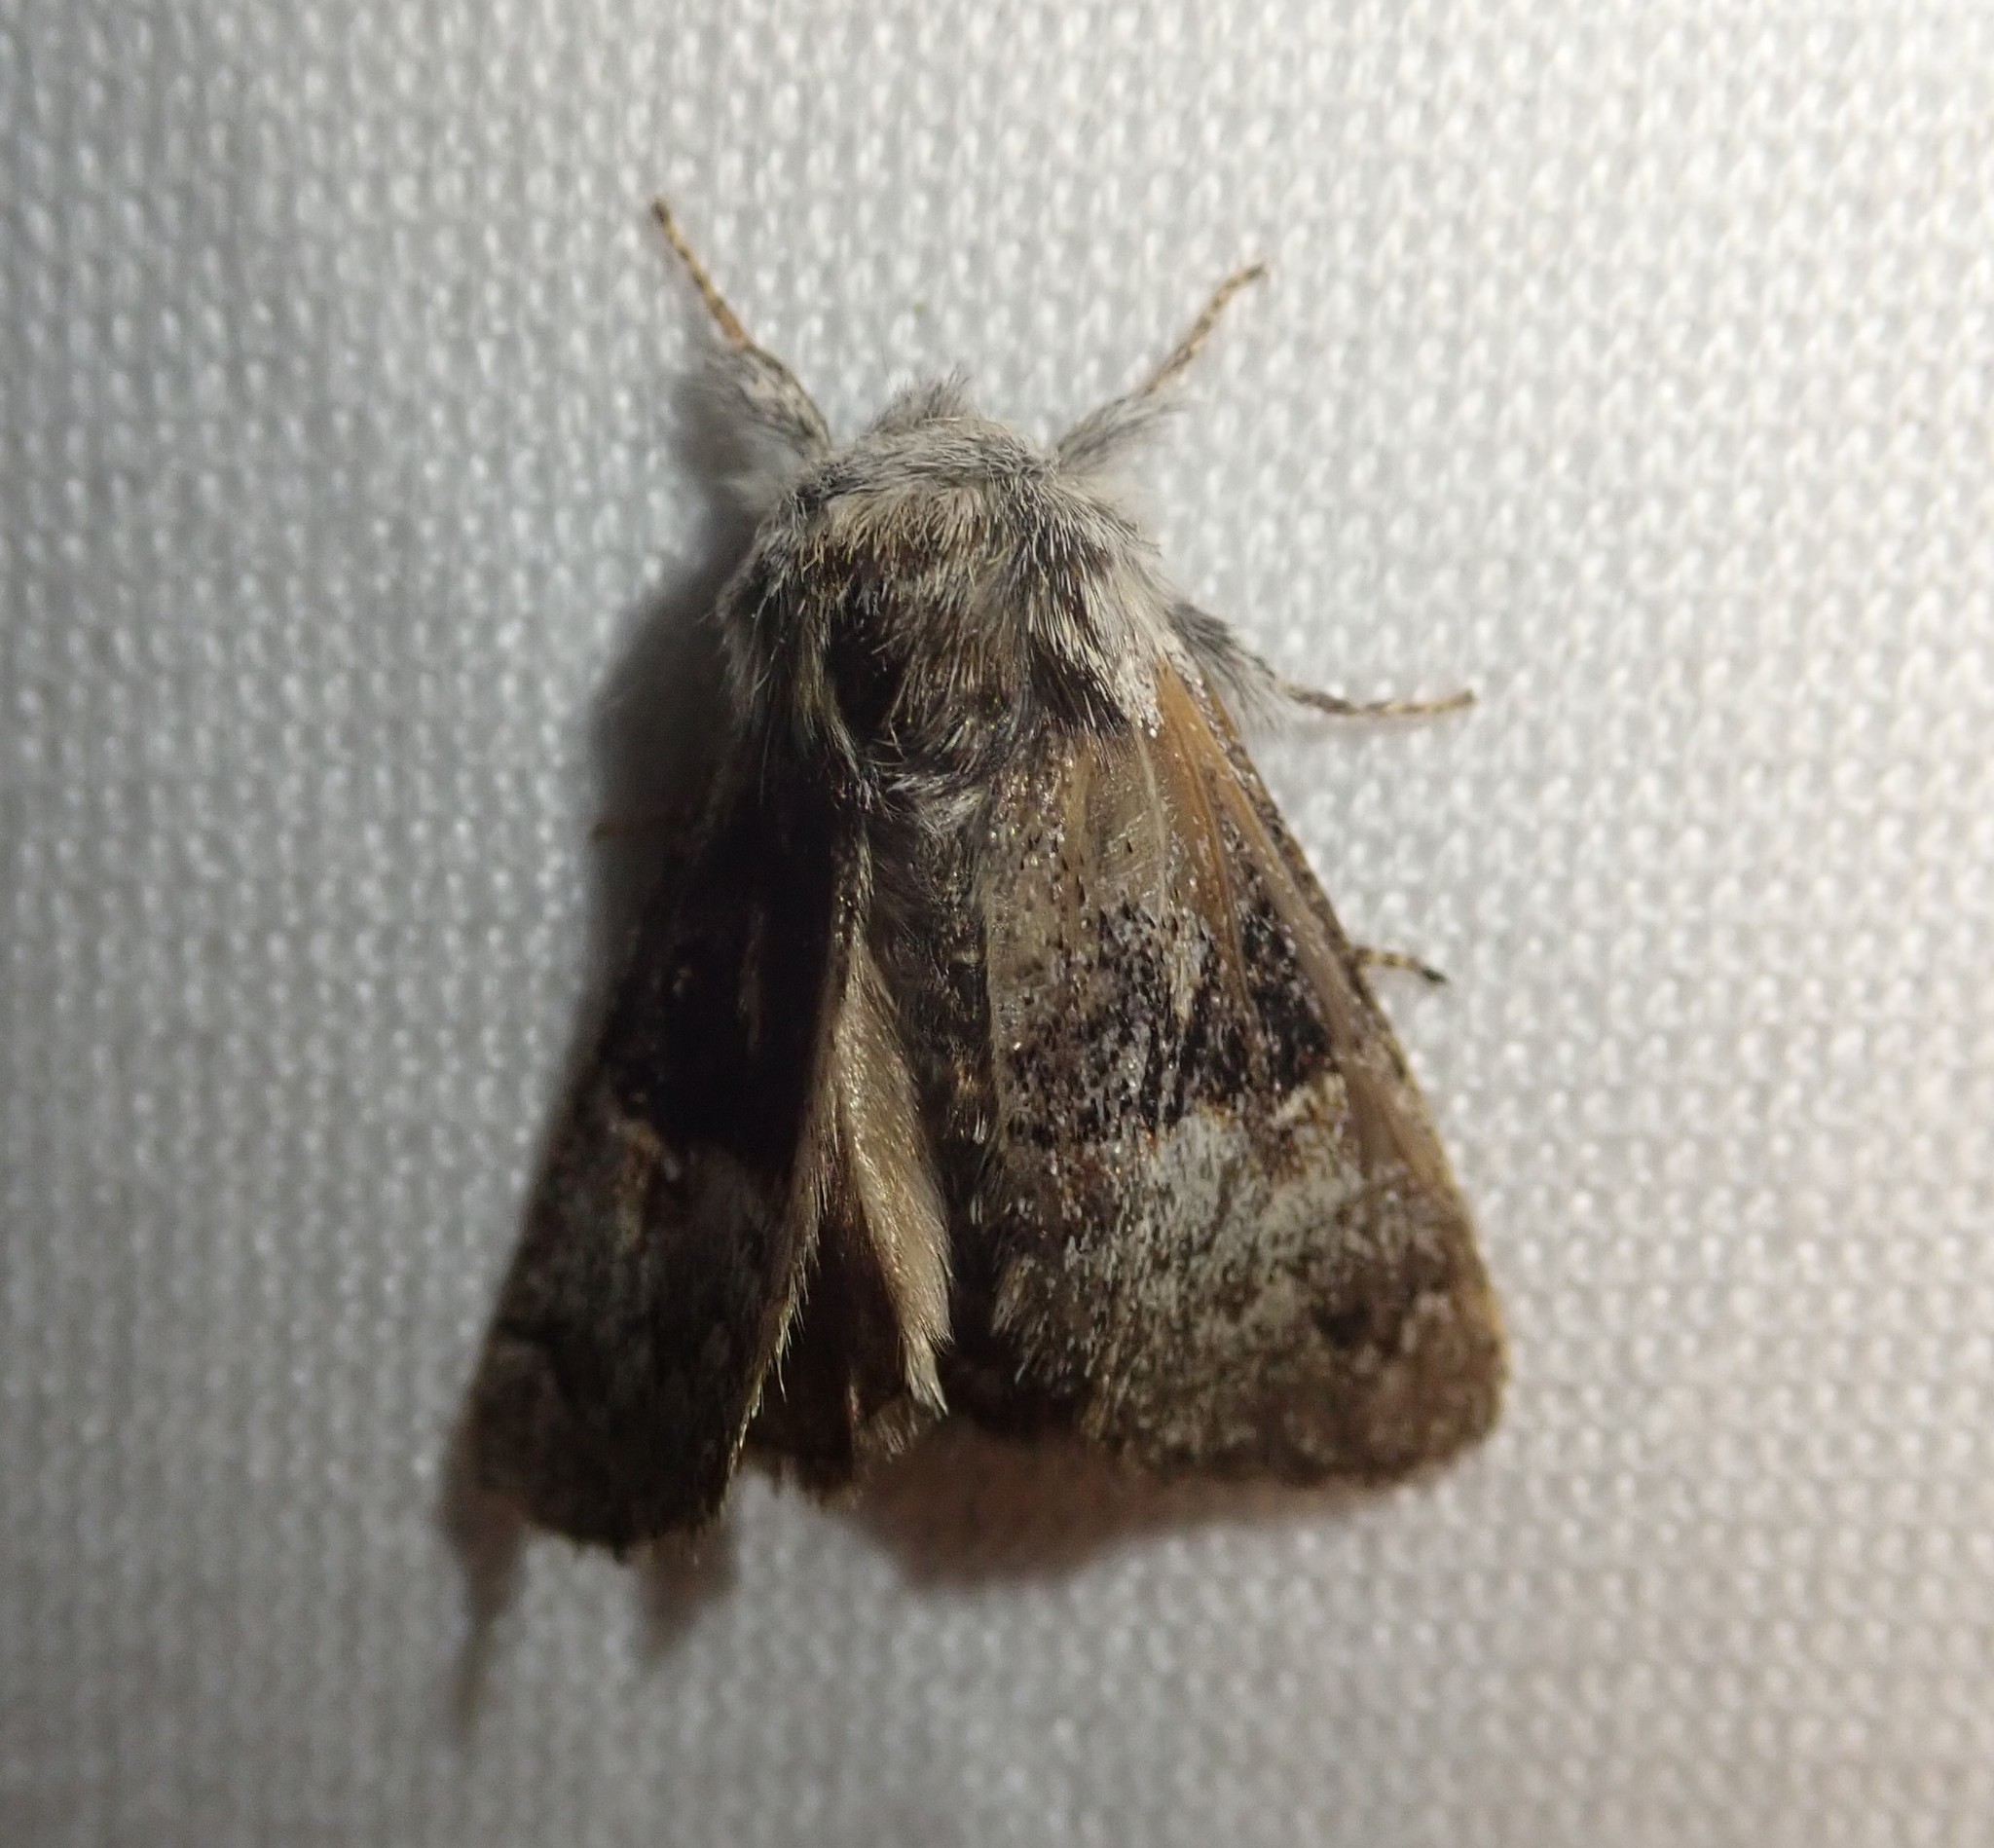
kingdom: Animalia
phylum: Arthropoda
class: Insecta
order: Lepidoptera
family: Noctuidae
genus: Colocasia
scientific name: Colocasia coryli
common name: Nut-tree tussock
